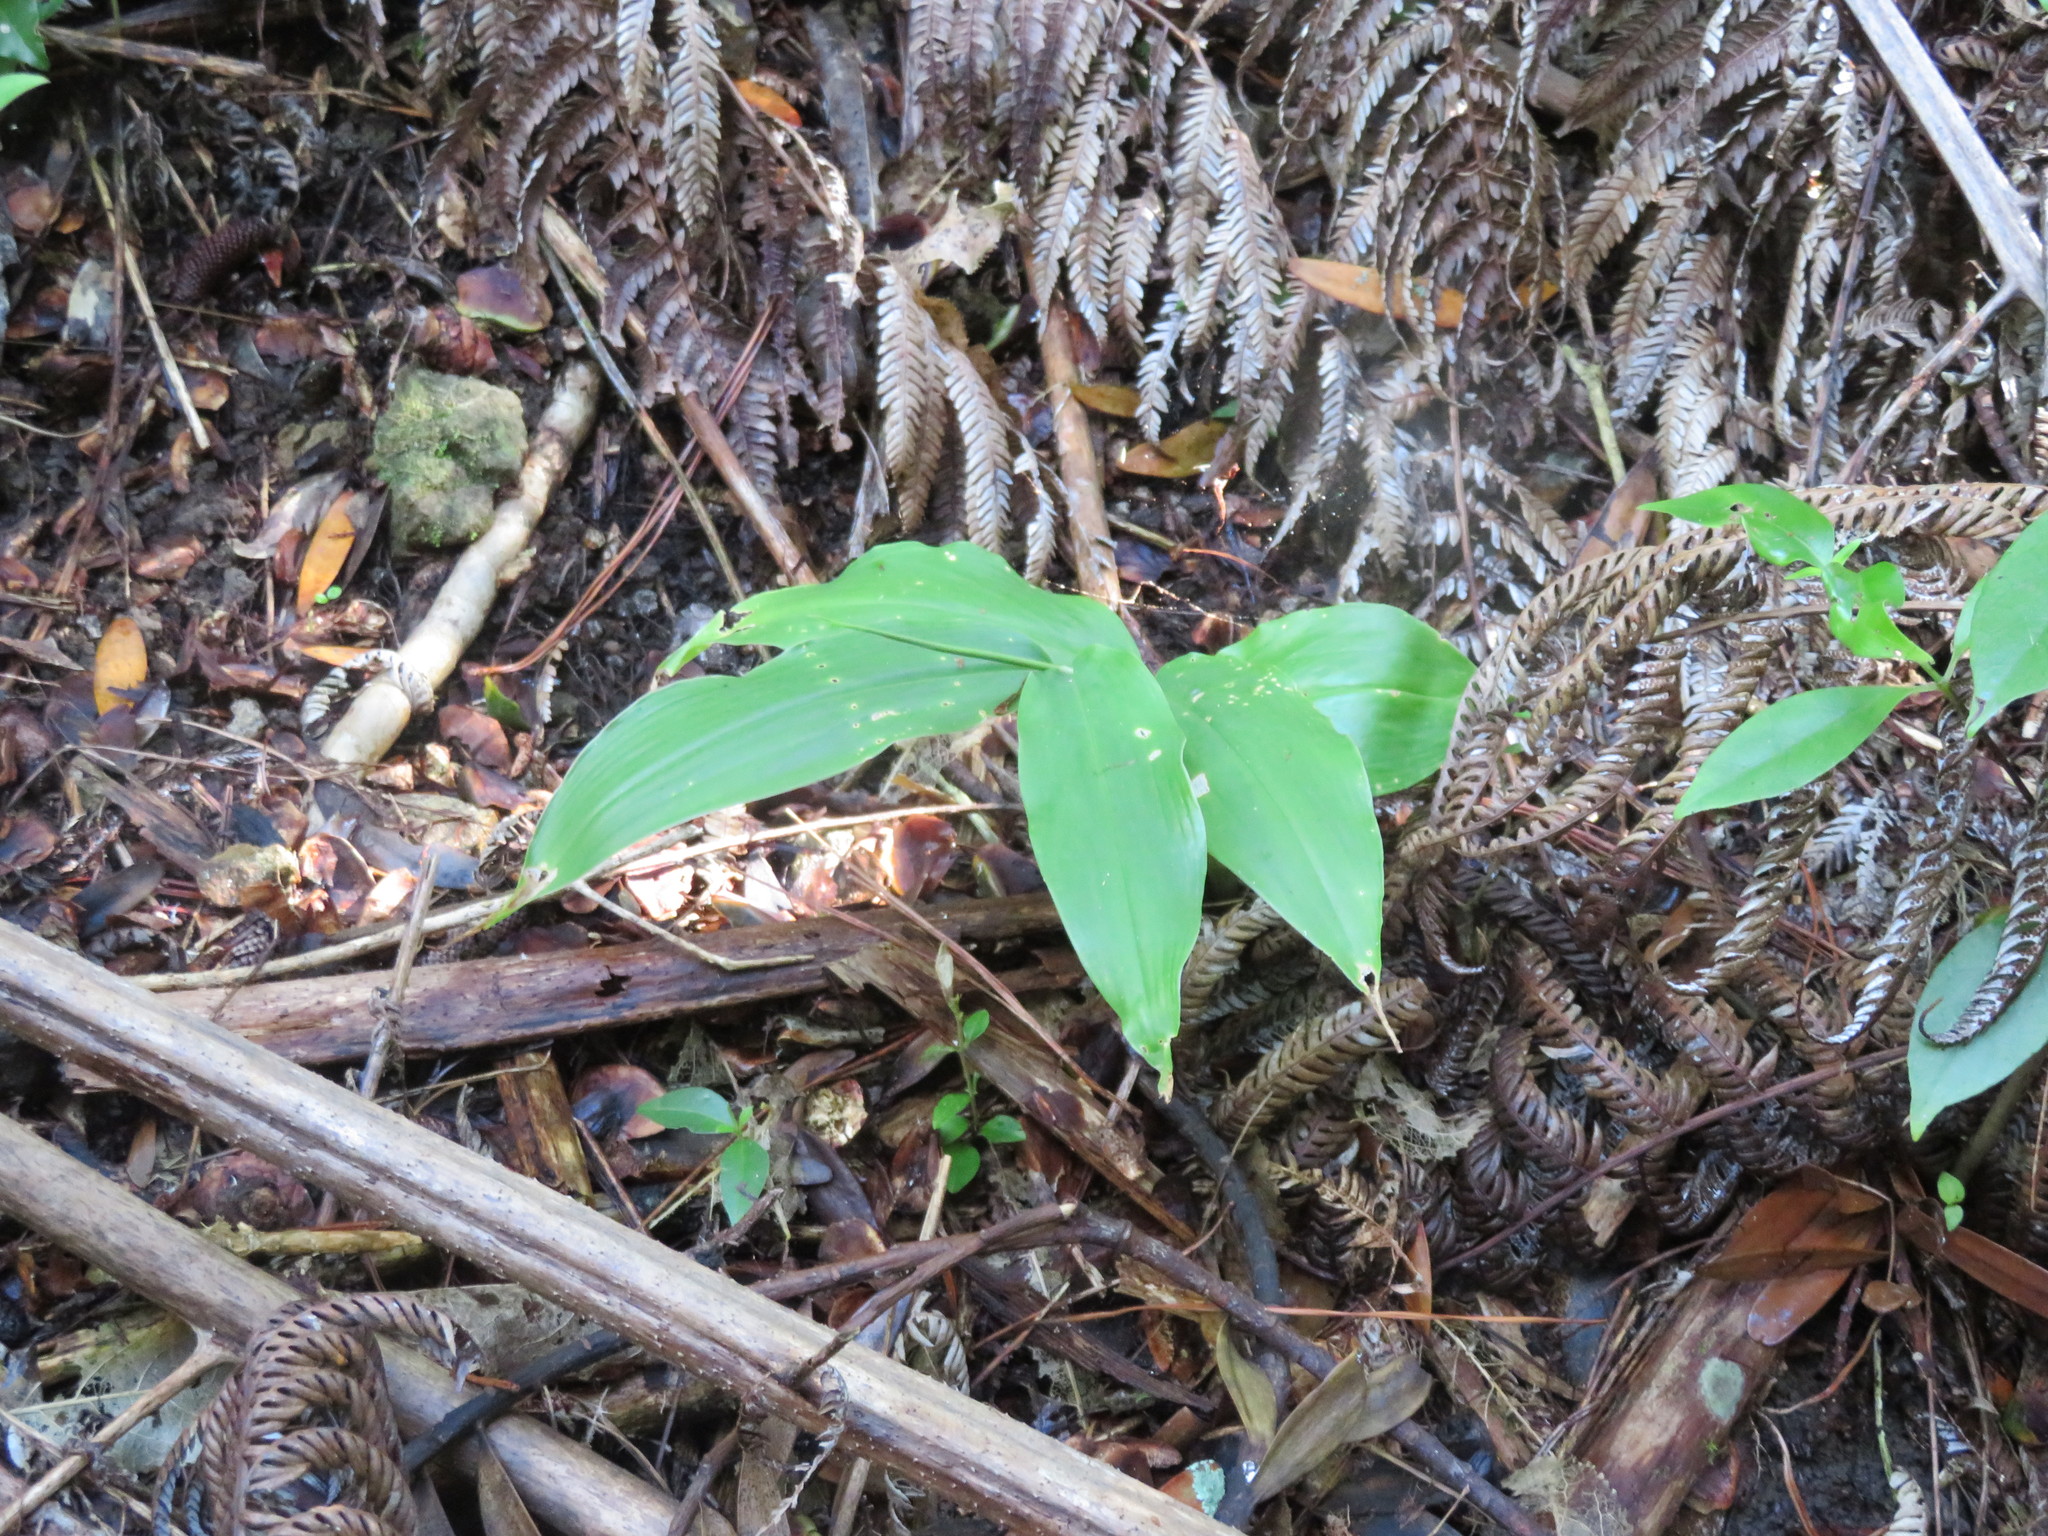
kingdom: Plantae
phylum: Tracheophyta
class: Liliopsida
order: Zingiberales
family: Zingiberaceae
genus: Hedychium
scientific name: Hedychium gardnerianum
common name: Himalayan ginger
